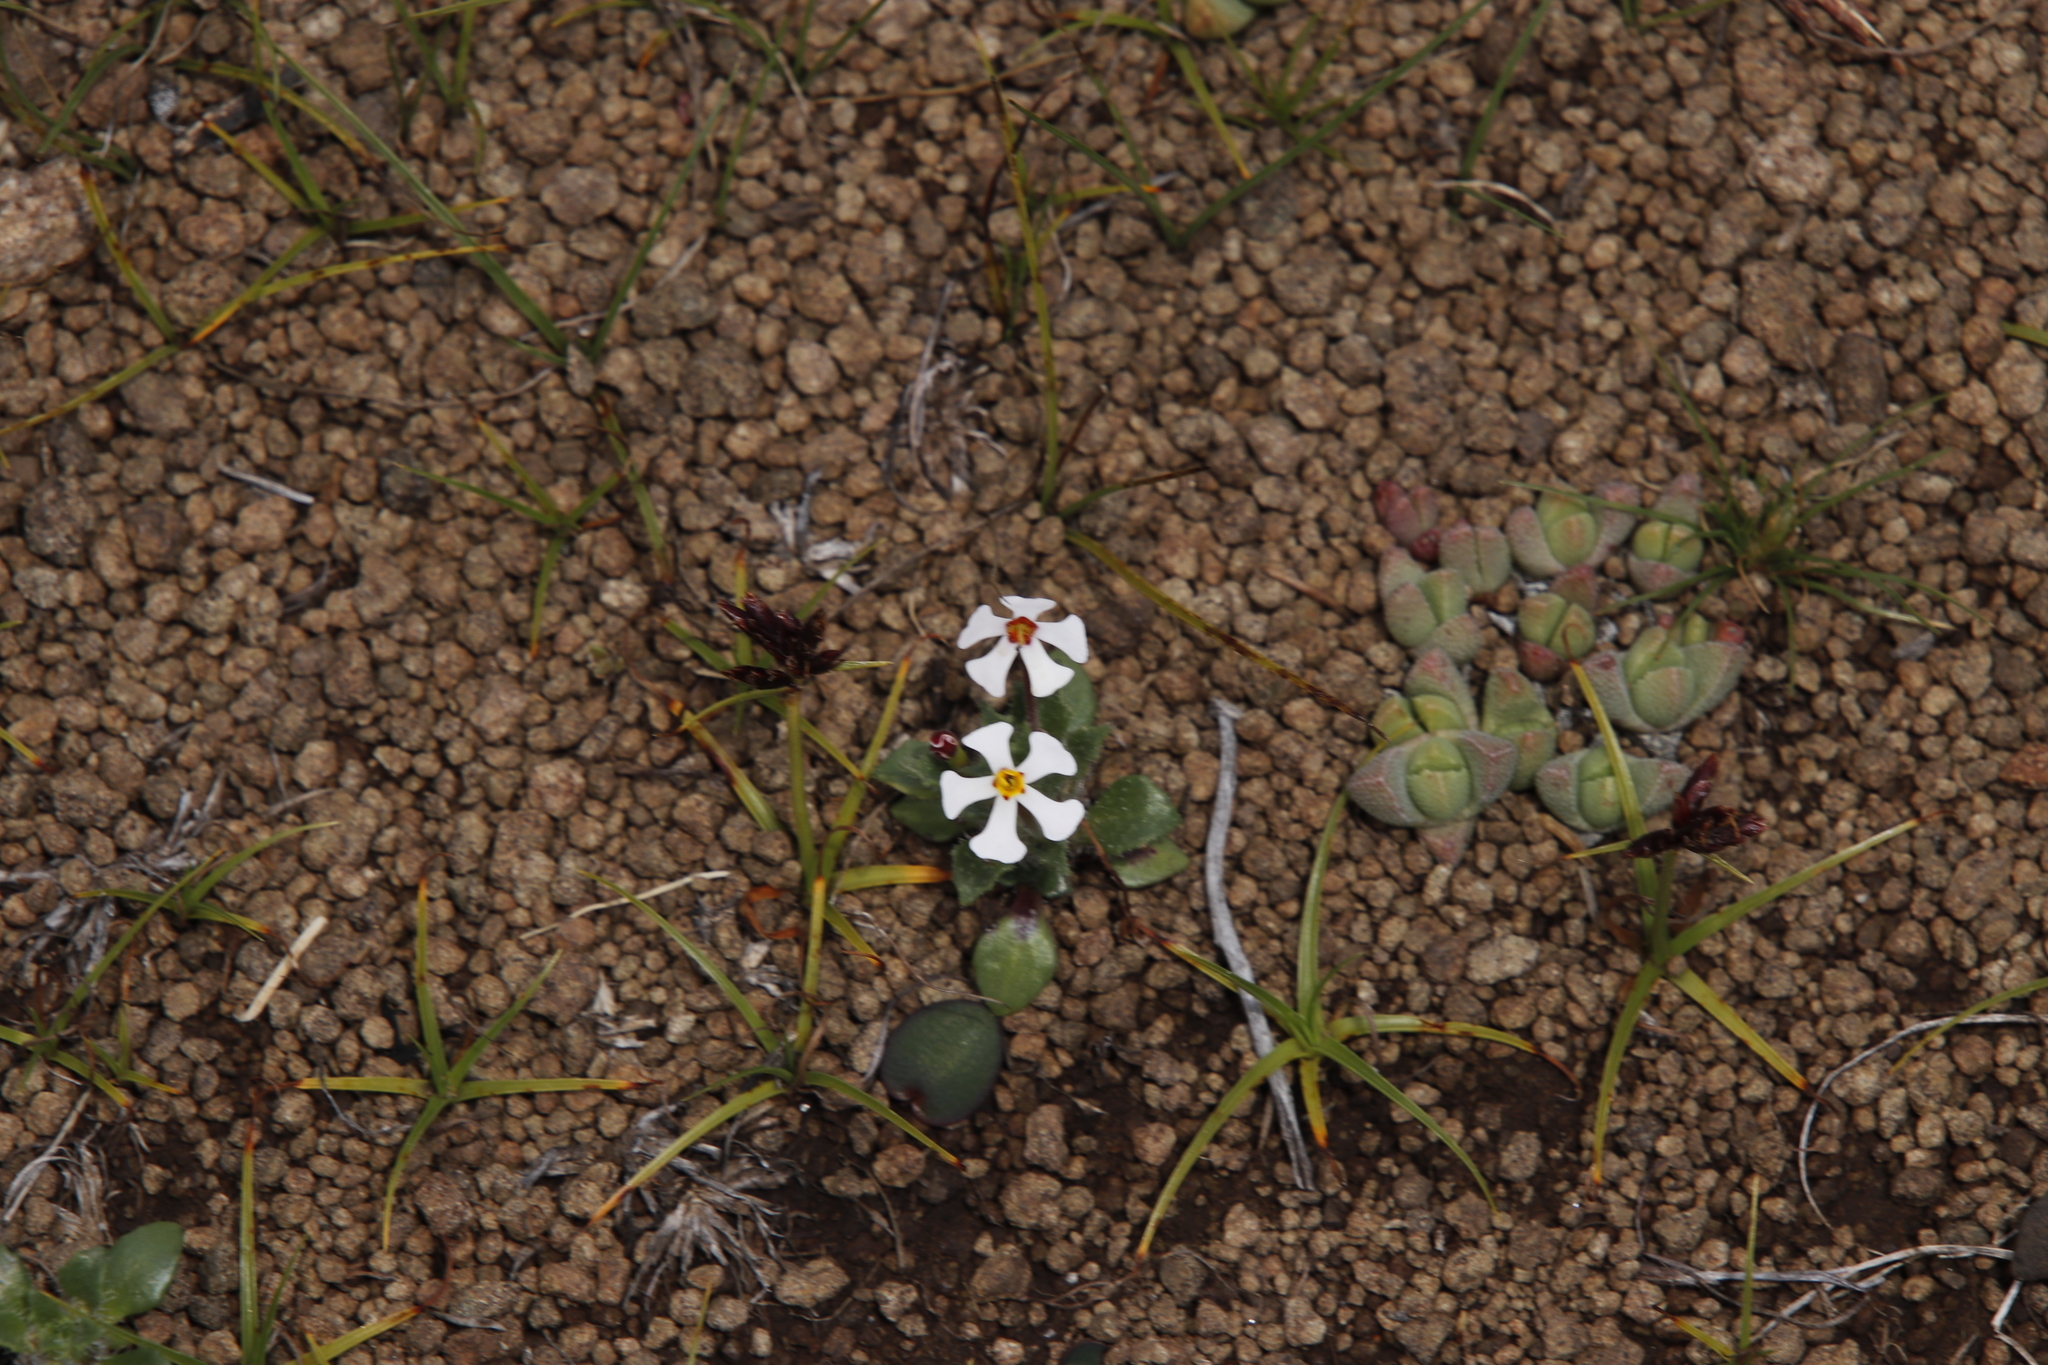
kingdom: Plantae
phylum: Tracheophyta
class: Magnoliopsida
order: Lamiales
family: Scrophulariaceae
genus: Zaluzianskya
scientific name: Zaluzianskya crocea
